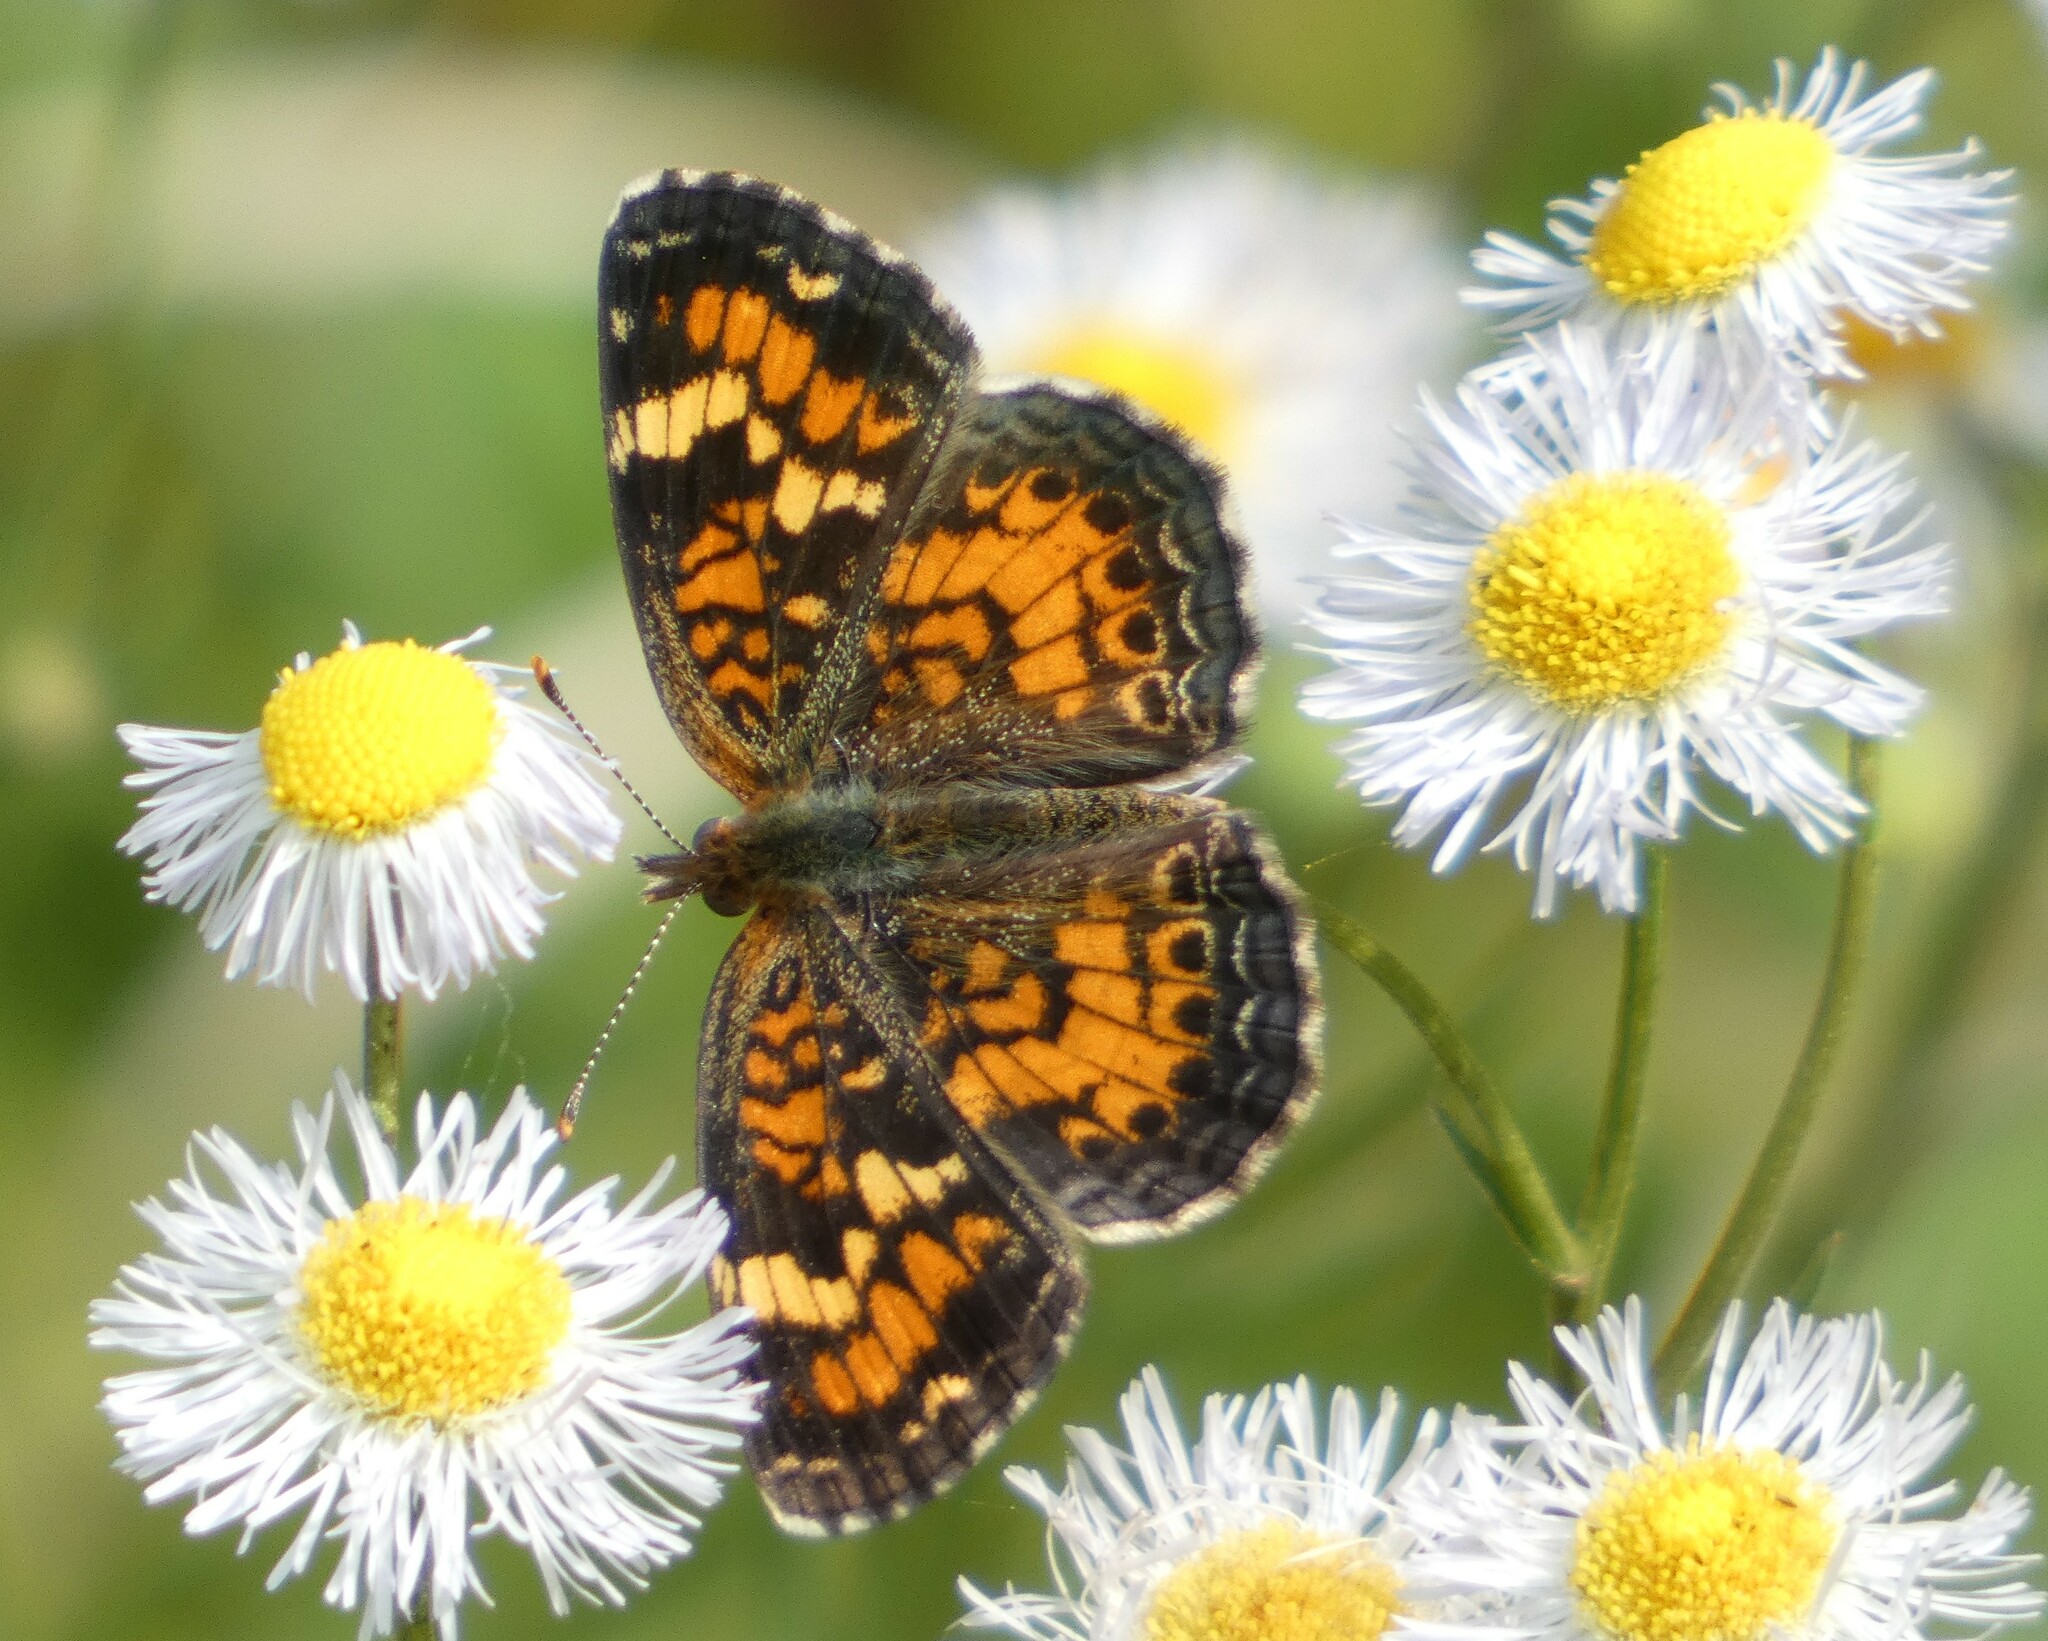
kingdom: Animalia
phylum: Arthropoda
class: Insecta
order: Lepidoptera
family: Nymphalidae
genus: Phyciodes
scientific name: Phyciodes phaon
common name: Phaon crescent
